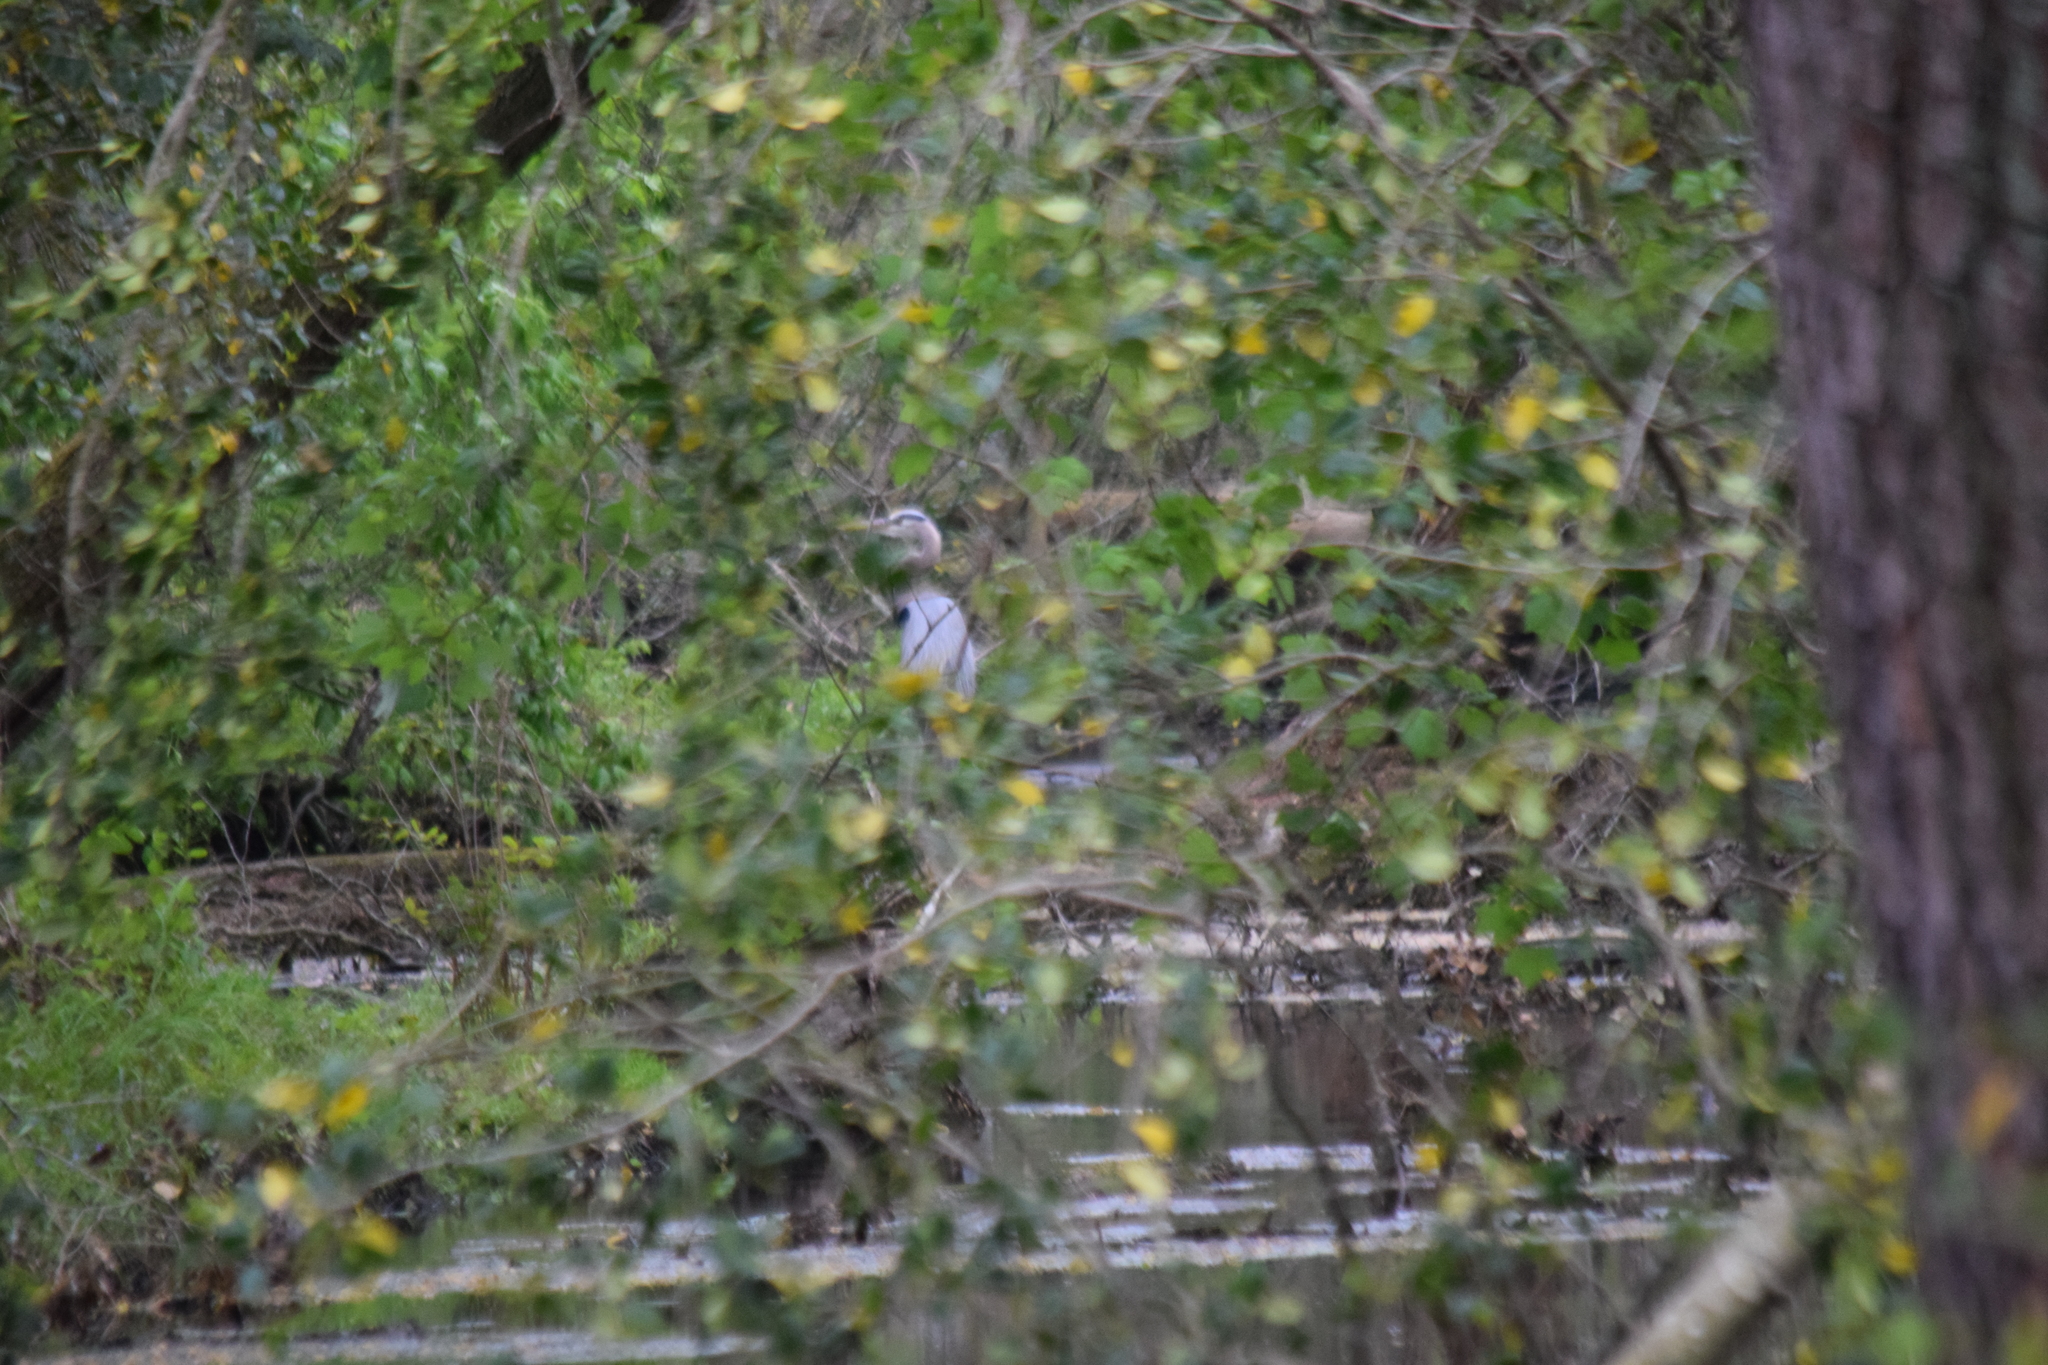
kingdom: Animalia
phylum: Chordata
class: Aves
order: Pelecaniformes
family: Ardeidae
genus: Ardea
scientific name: Ardea herodias
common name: Great blue heron
